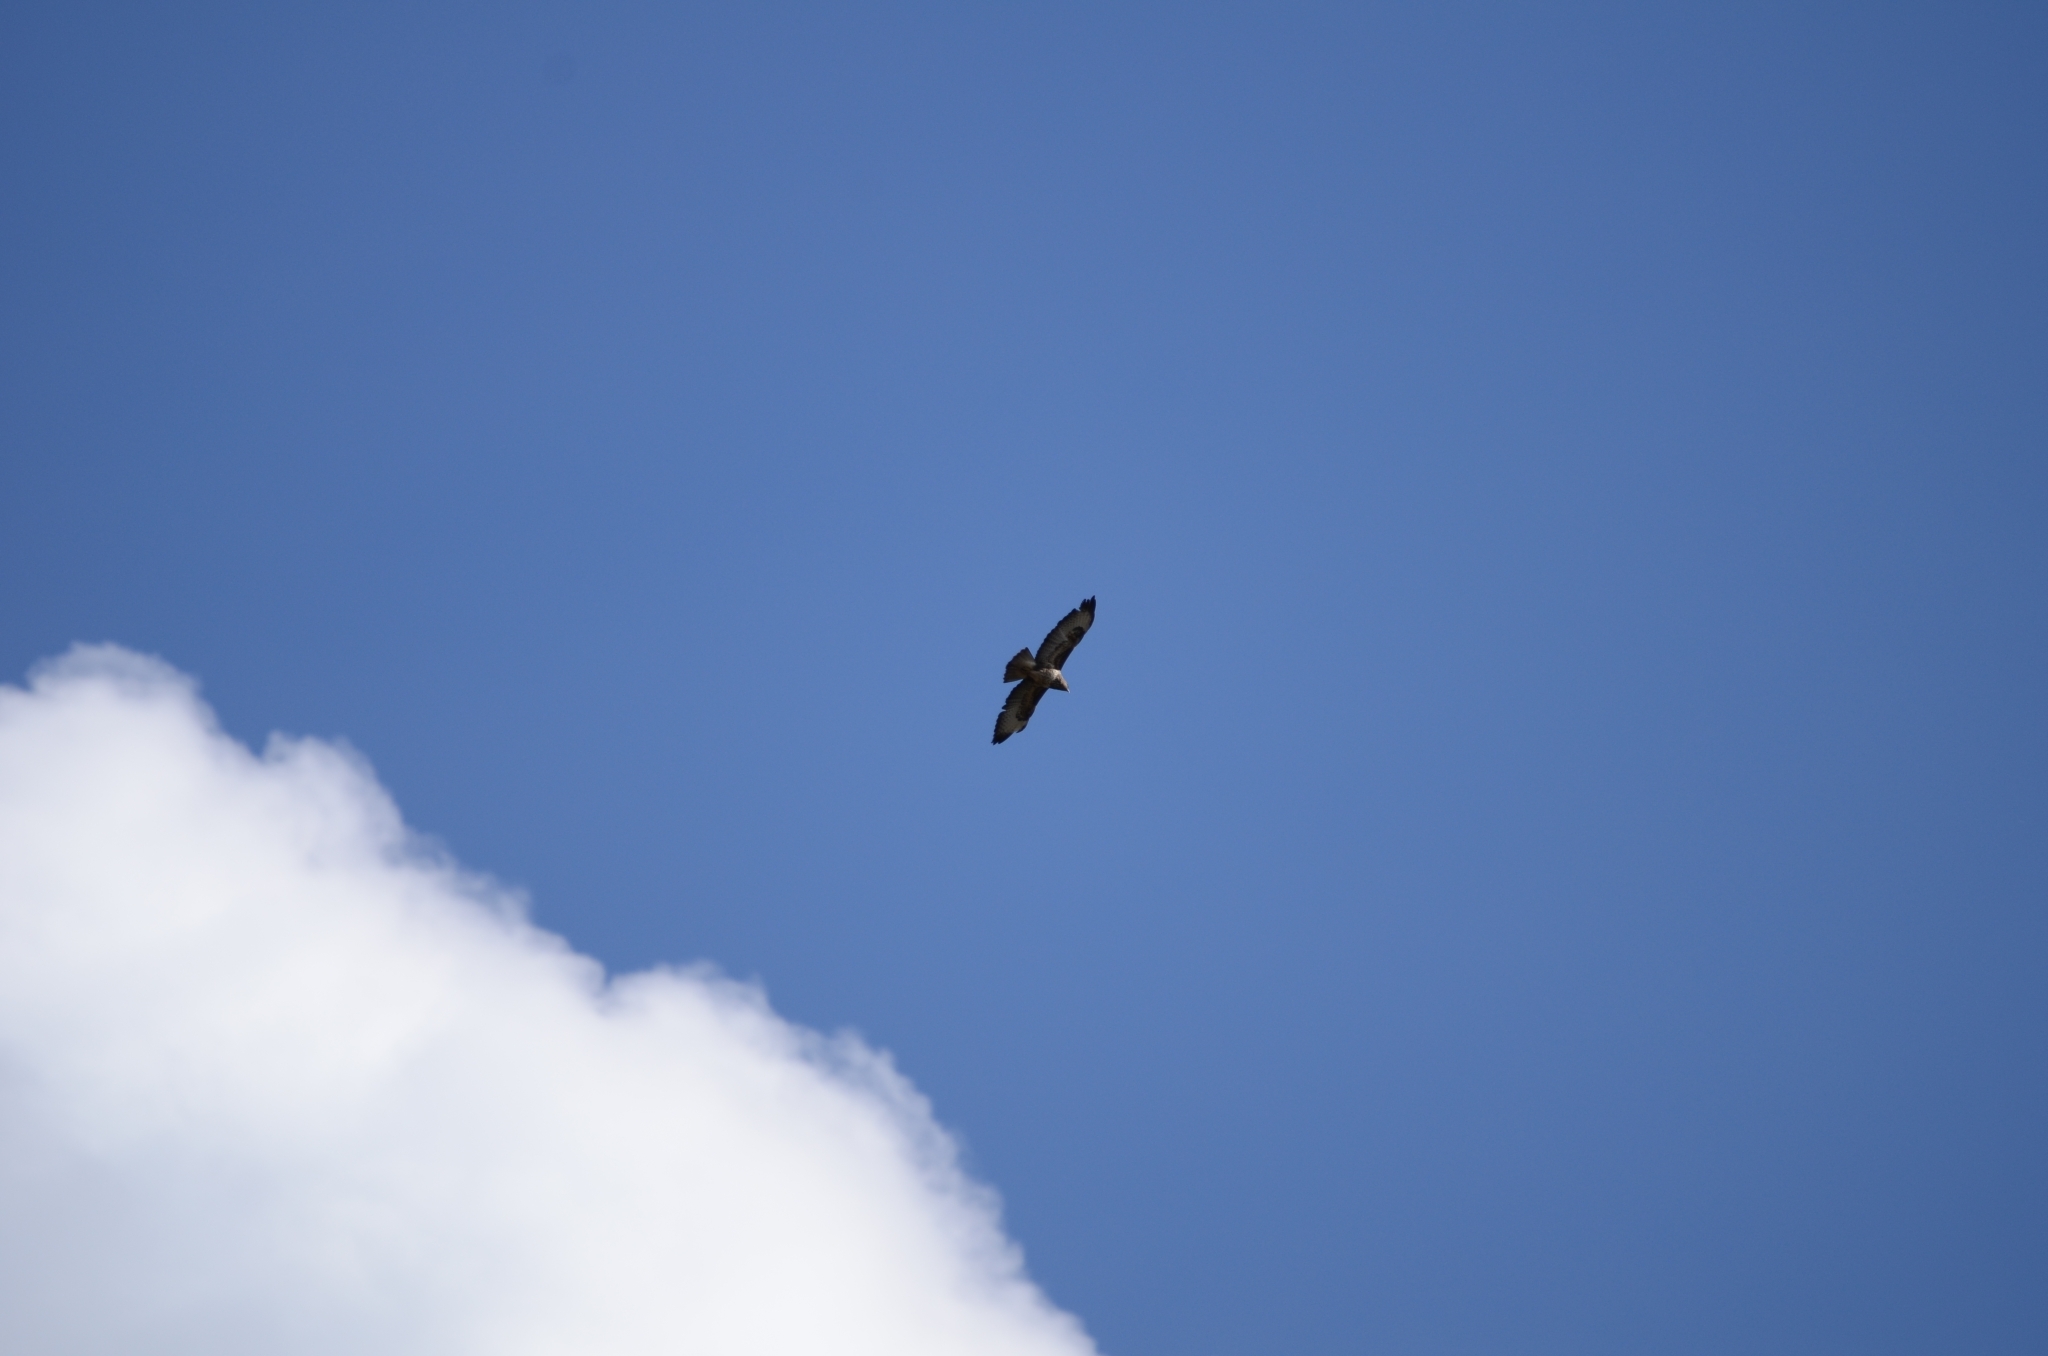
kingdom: Animalia
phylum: Chordata
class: Aves
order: Accipitriformes
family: Accipitridae
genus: Buteo
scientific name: Buteo buteo
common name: Common buzzard
